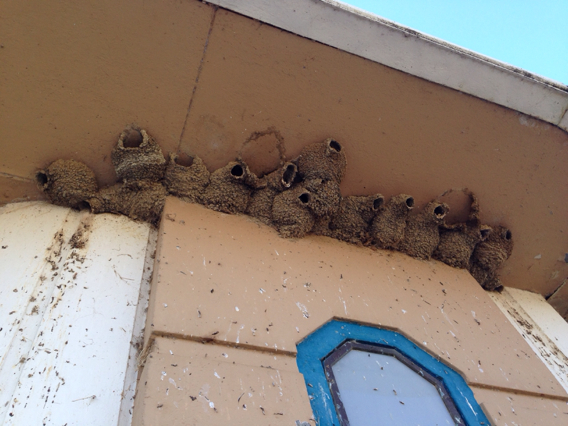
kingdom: Animalia
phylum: Chordata
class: Aves
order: Passeriformes
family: Hirundinidae
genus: Petrochelidon
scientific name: Petrochelidon pyrrhonota
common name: American cliff swallow
